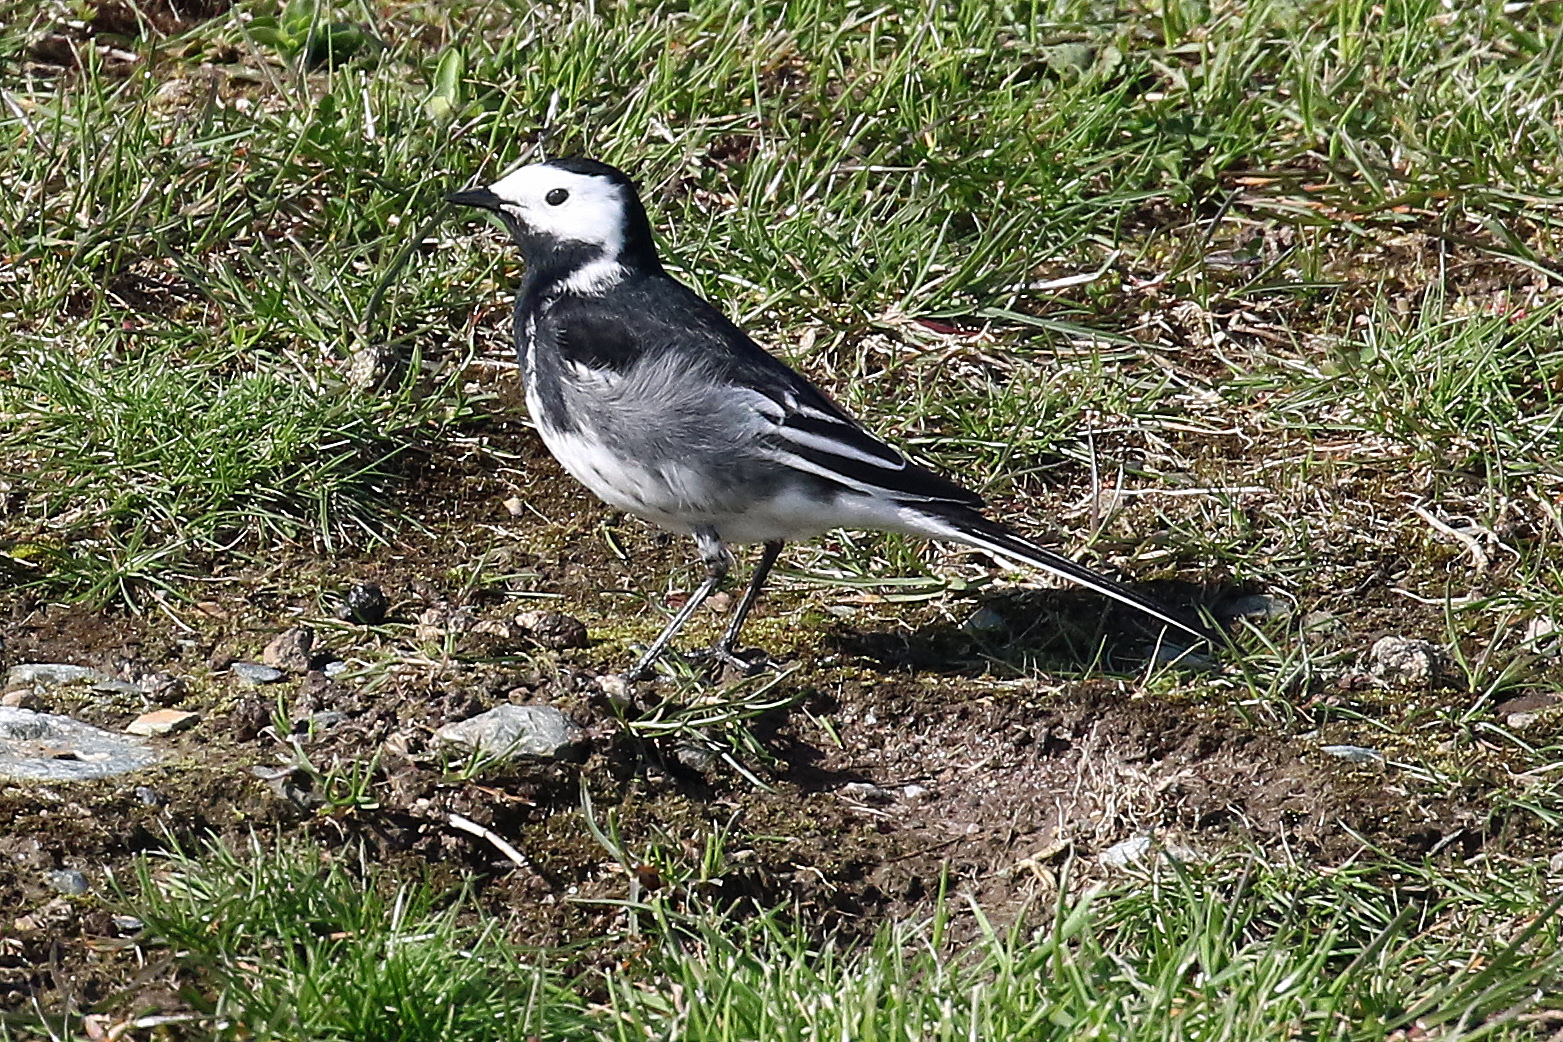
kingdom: Animalia
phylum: Chordata
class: Aves
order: Passeriformes
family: Motacillidae
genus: Motacilla
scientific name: Motacilla alba
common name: White wagtail
